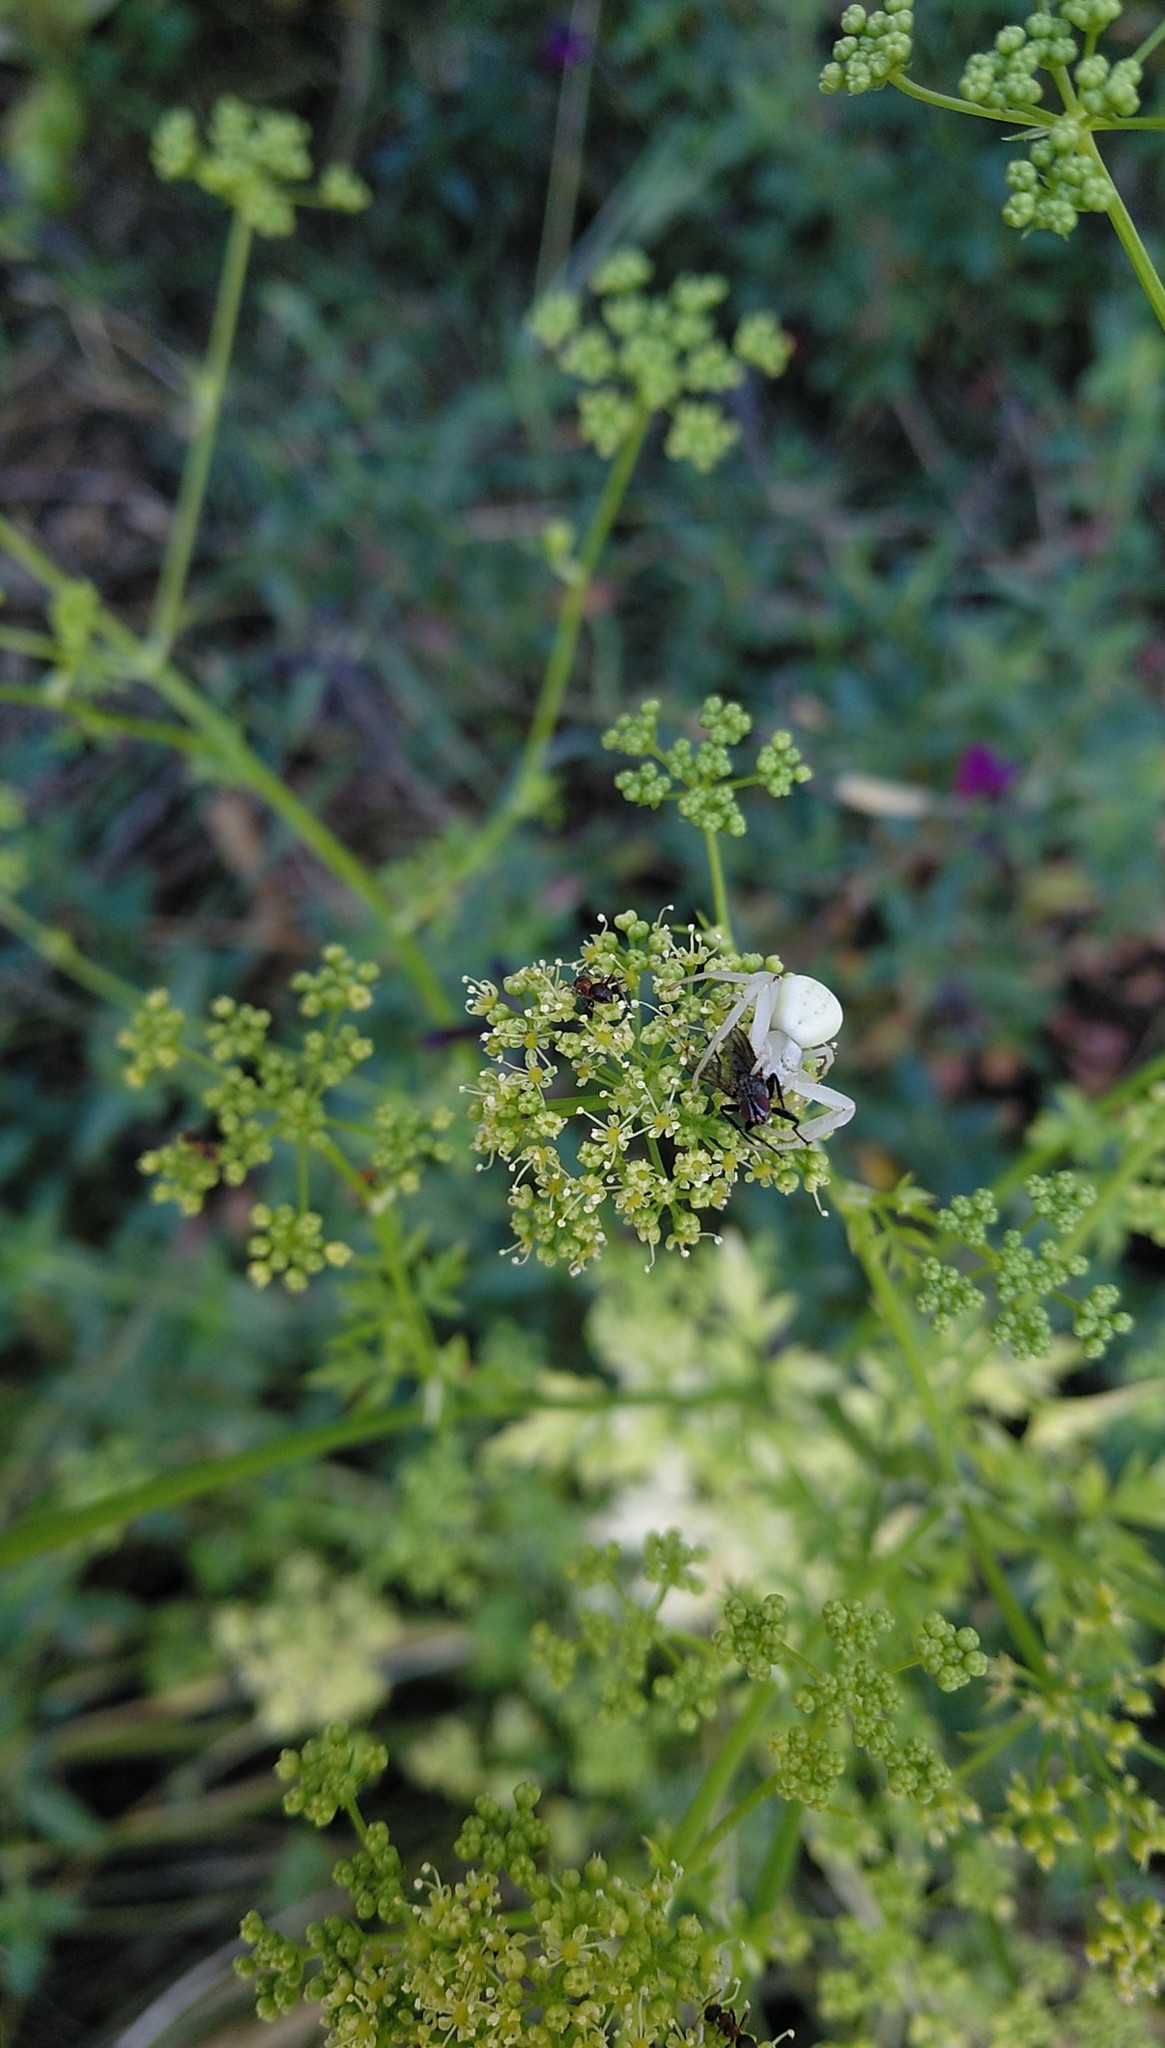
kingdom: Animalia
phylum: Arthropoda
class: Arachnida
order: Araneae
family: Thomisidae
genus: Misumena
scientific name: Misumena vatia
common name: Goldenrod crab spider
